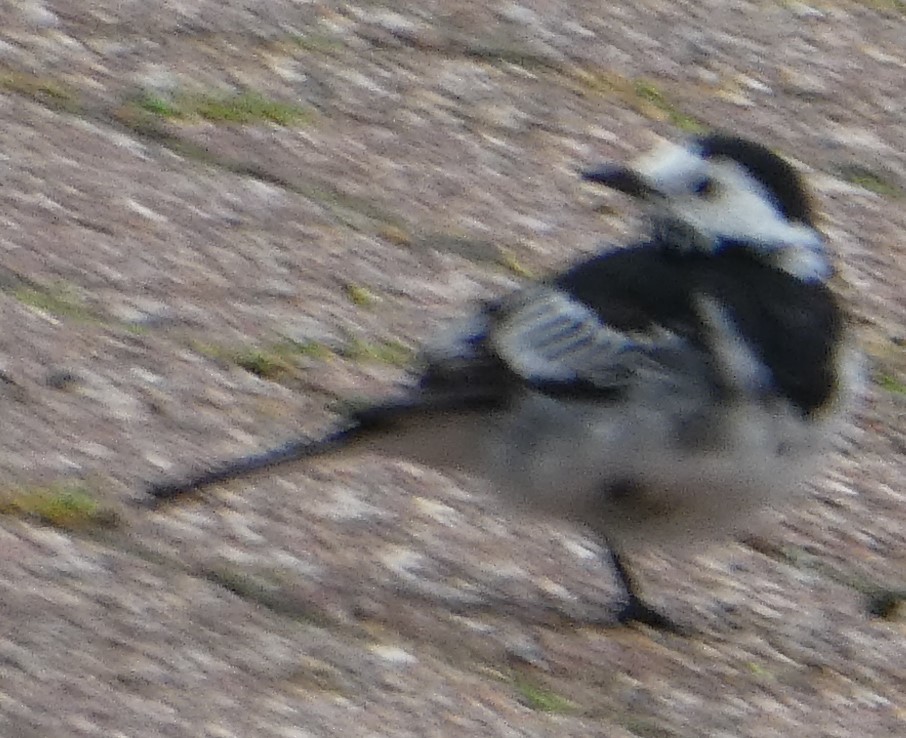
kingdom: Animalia
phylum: Chordata
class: Aves
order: Passeriformes
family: Motacillidae
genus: Motacilla
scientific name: Motacilla alba
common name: White wagtail
